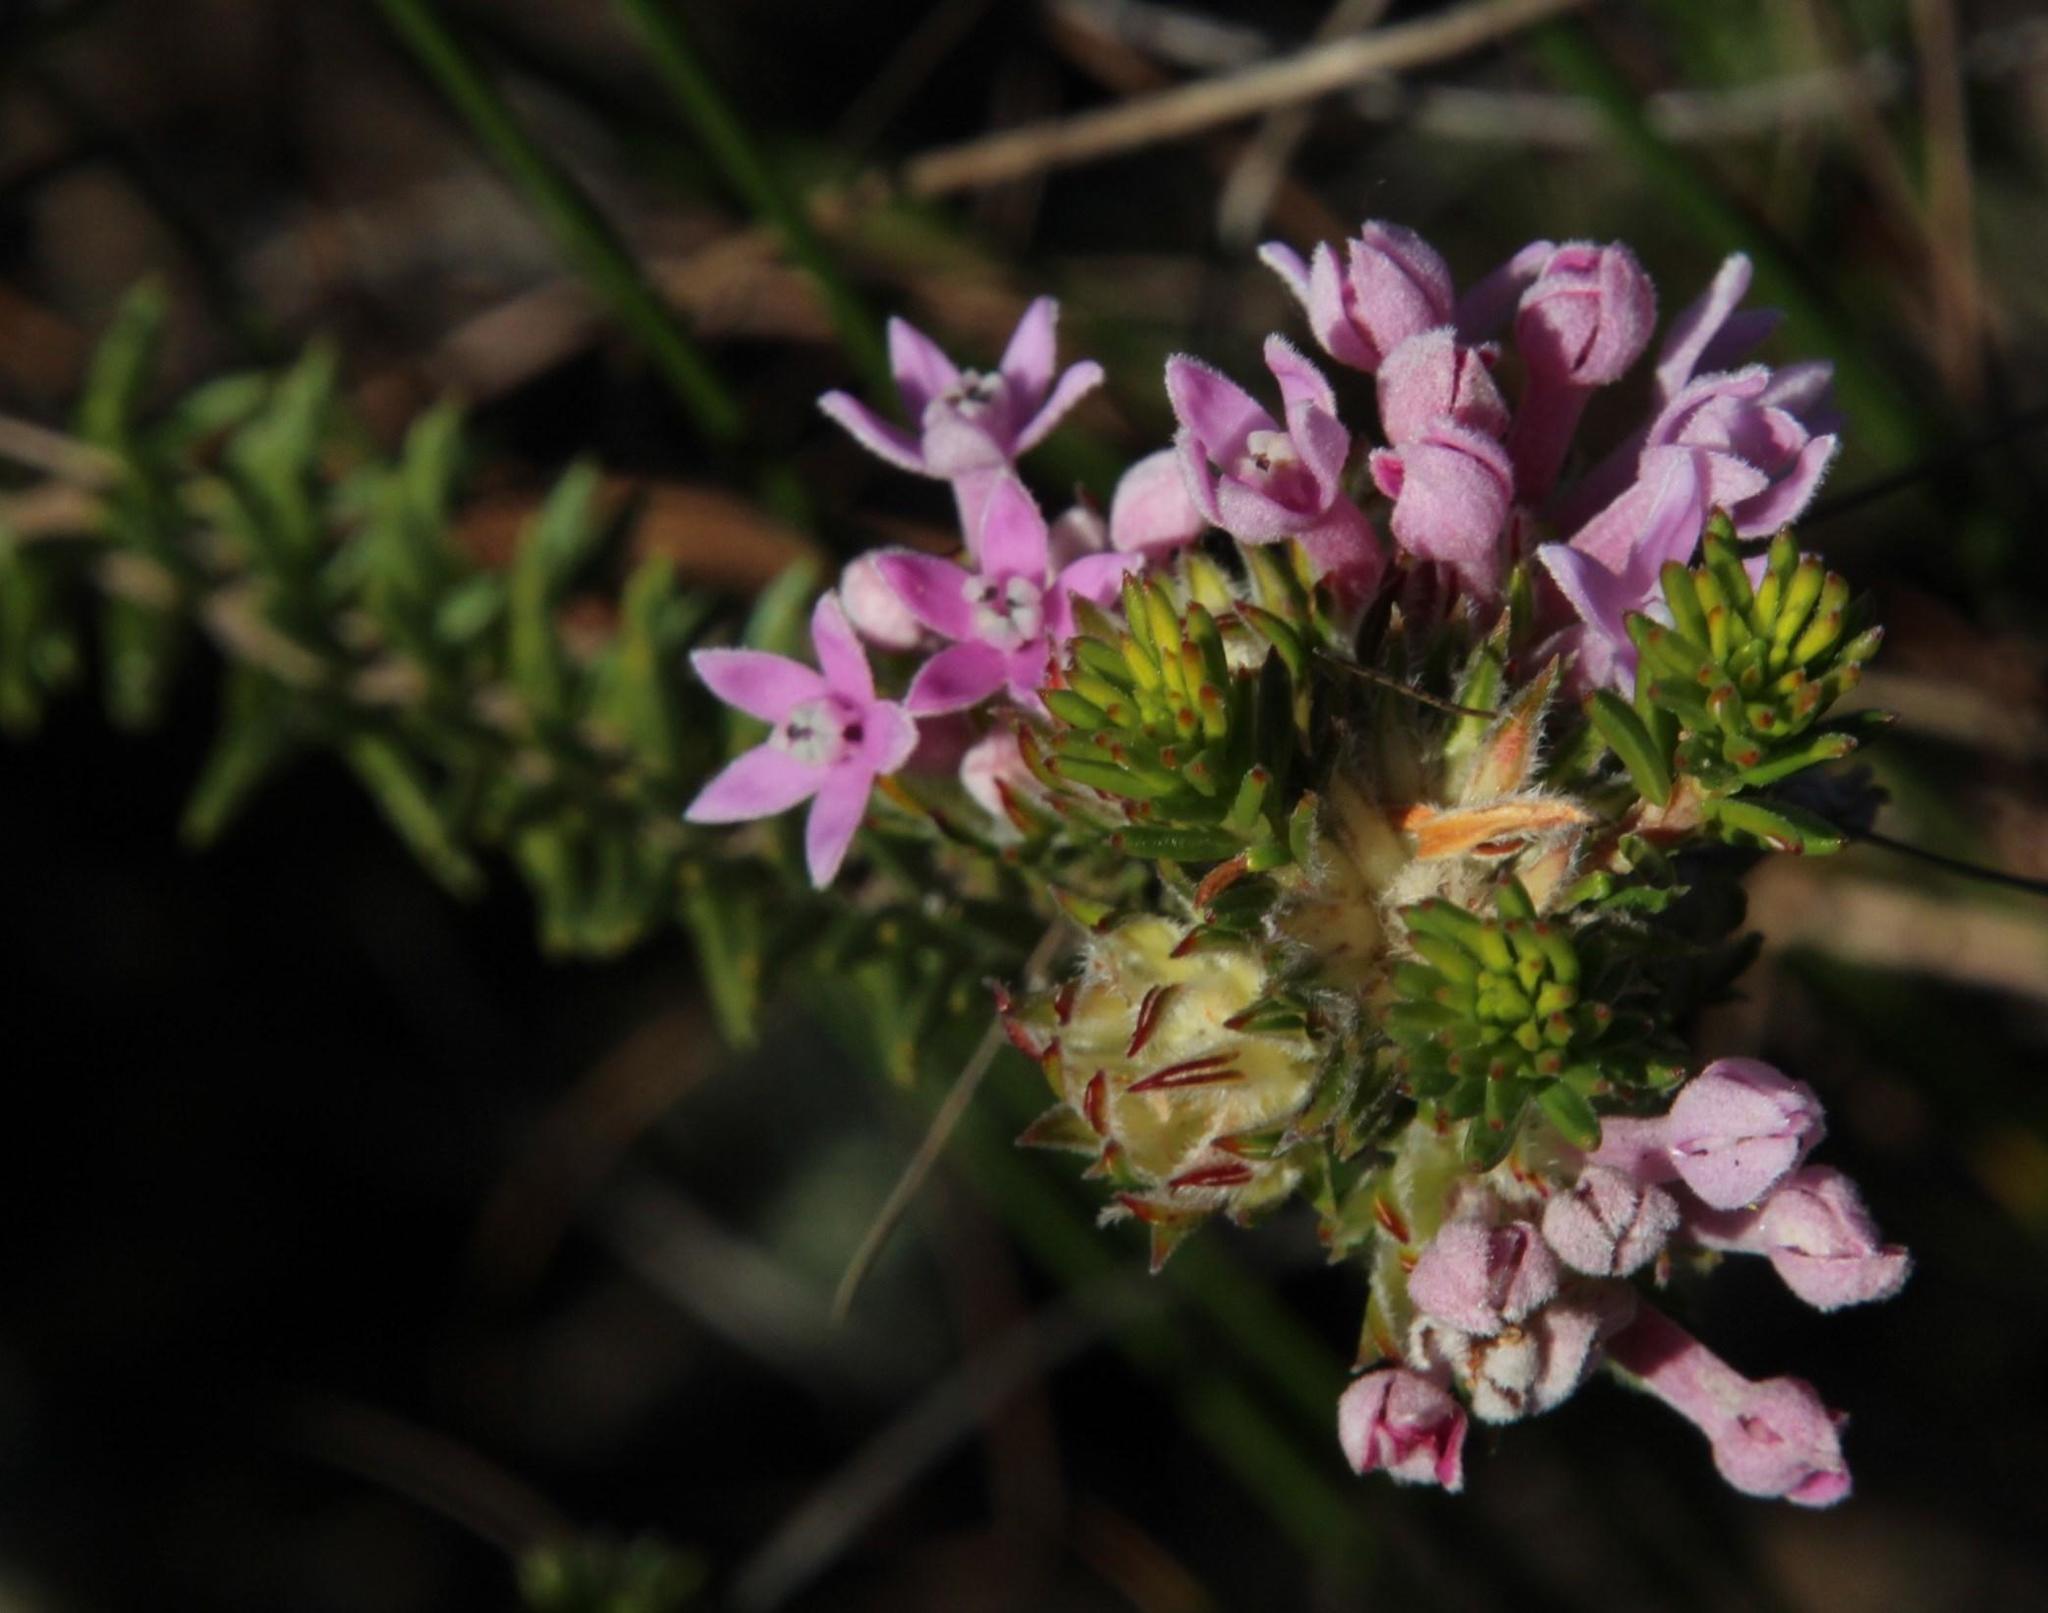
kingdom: Plantae
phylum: Tracheophyta
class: Magnoliopsida
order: Rosales
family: Rhamnaceae
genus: Phylica
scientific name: Phylica gnidioides
